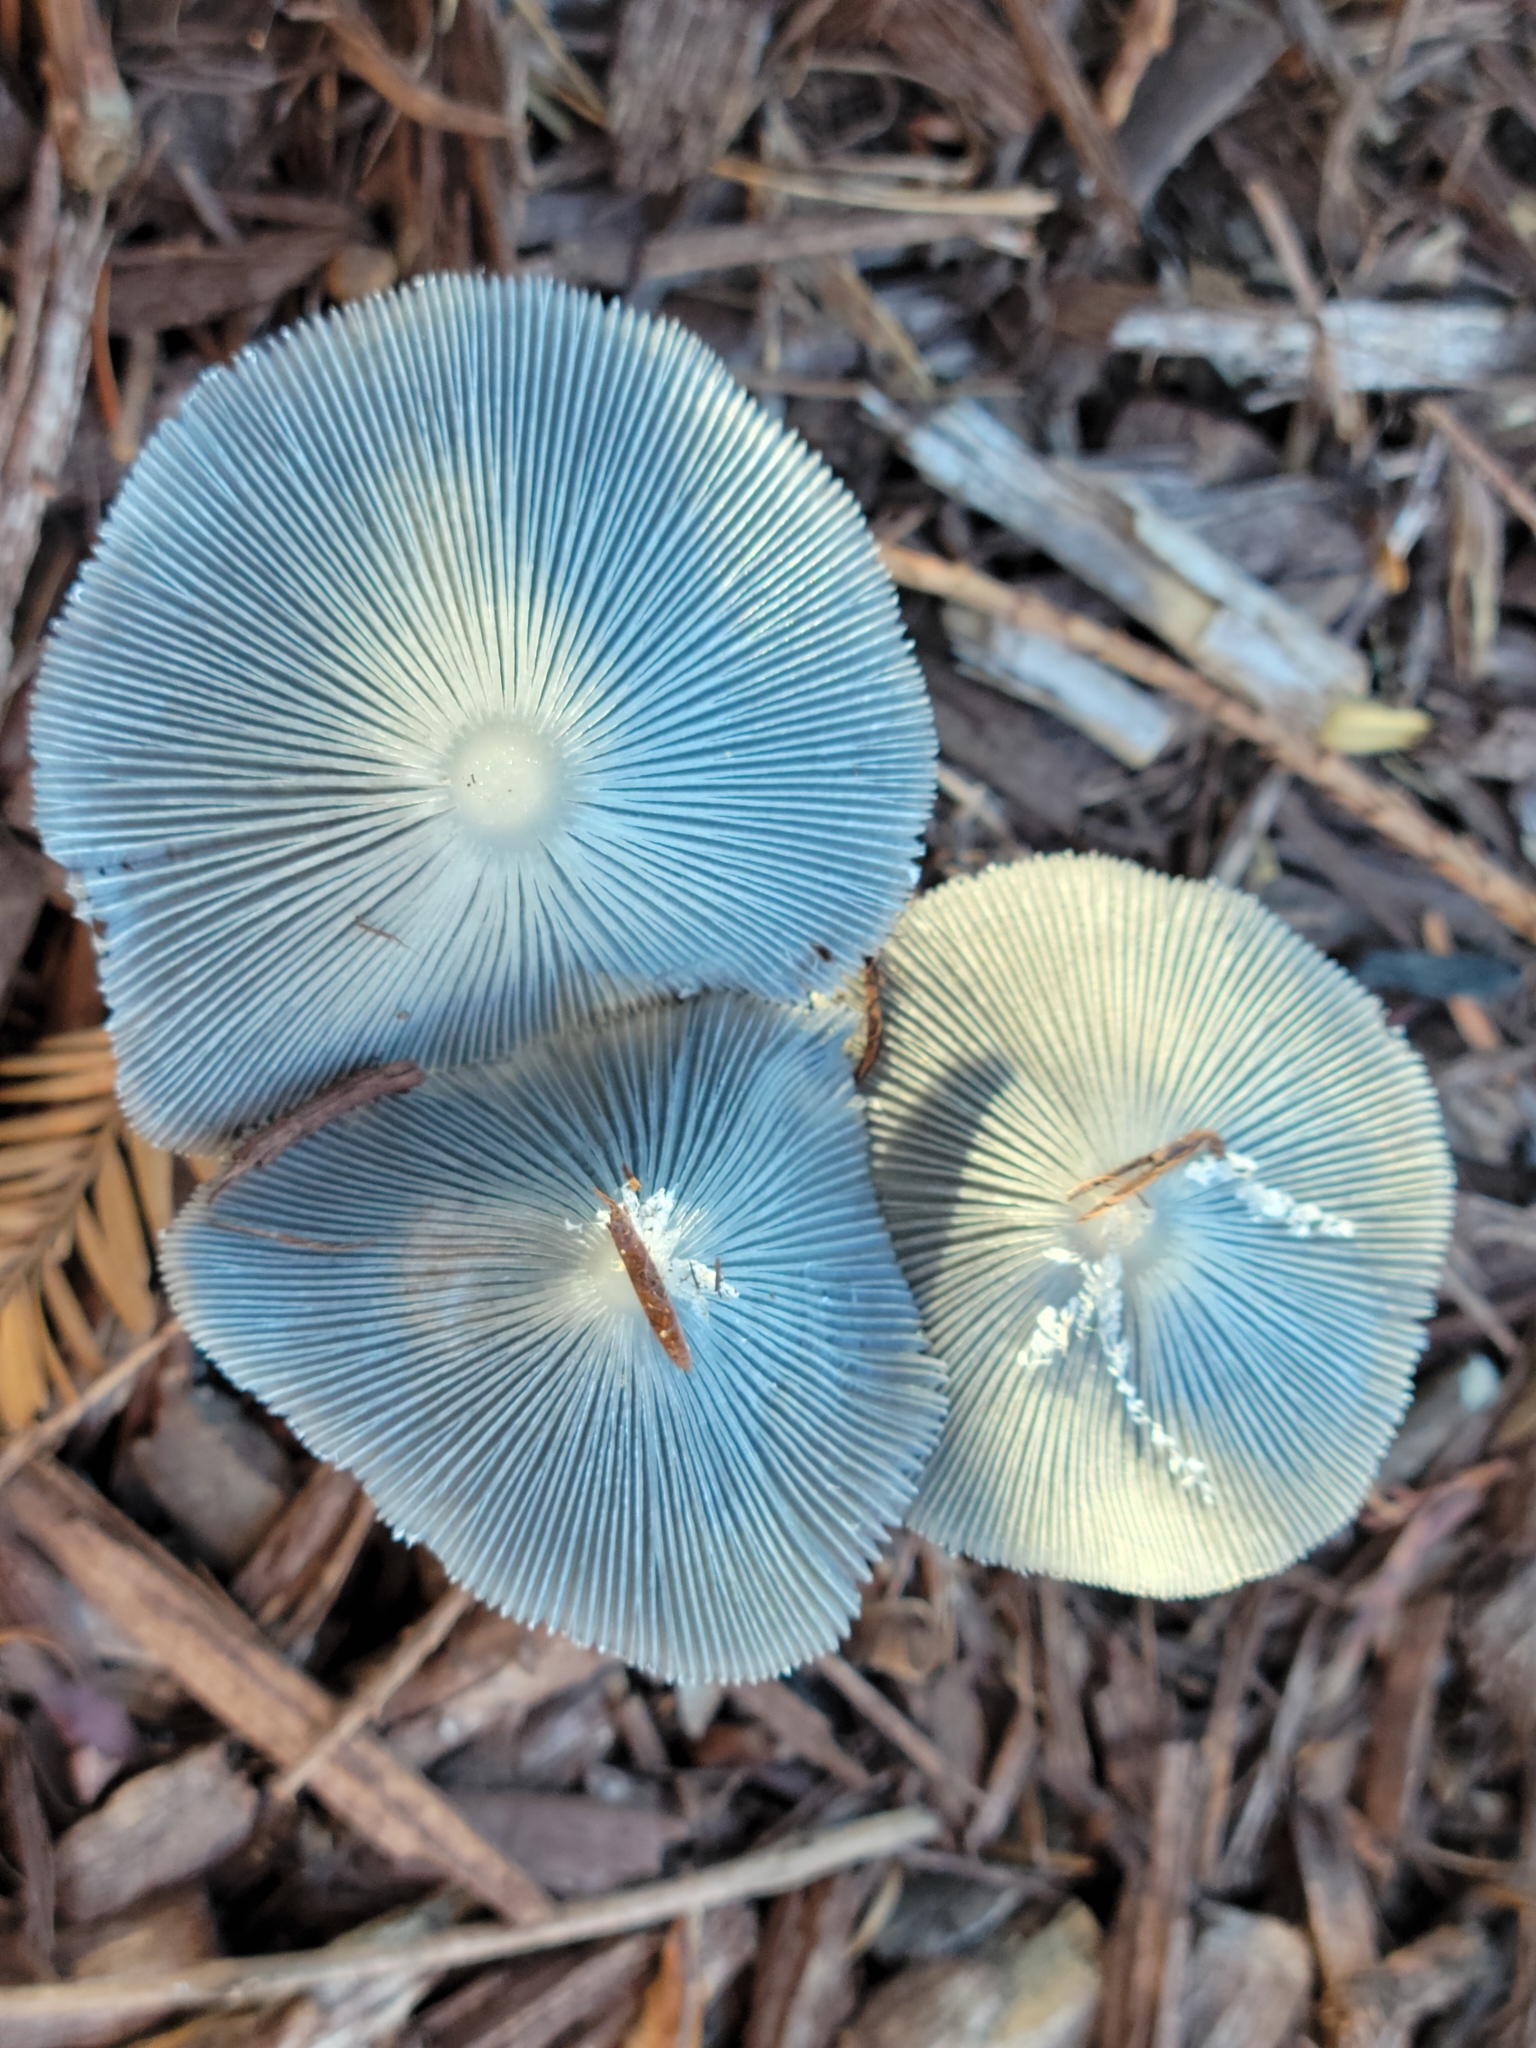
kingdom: Fungi
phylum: Basidiomycota
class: Agaricomycetes
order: Agaricales
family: Psathyrellaceae
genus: Coprinopsis
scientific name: Coprinopsis lagopus
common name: Hare'sfoot inkcap
